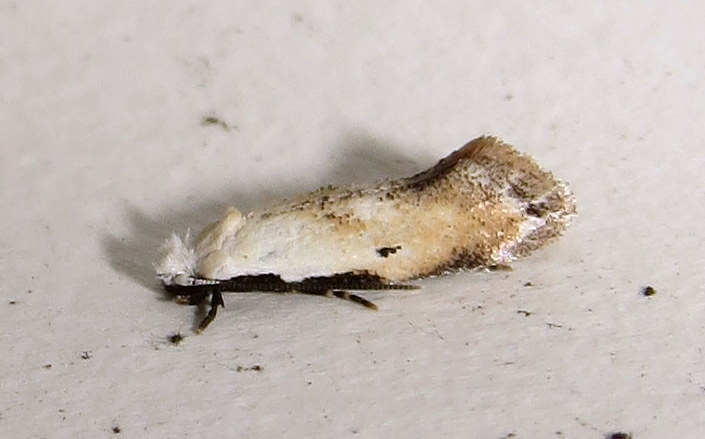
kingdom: Animalia
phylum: Arthropoda
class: Insecta
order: Lepidoptera
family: Meessiidae
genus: Mea
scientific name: Mea skinnerella
